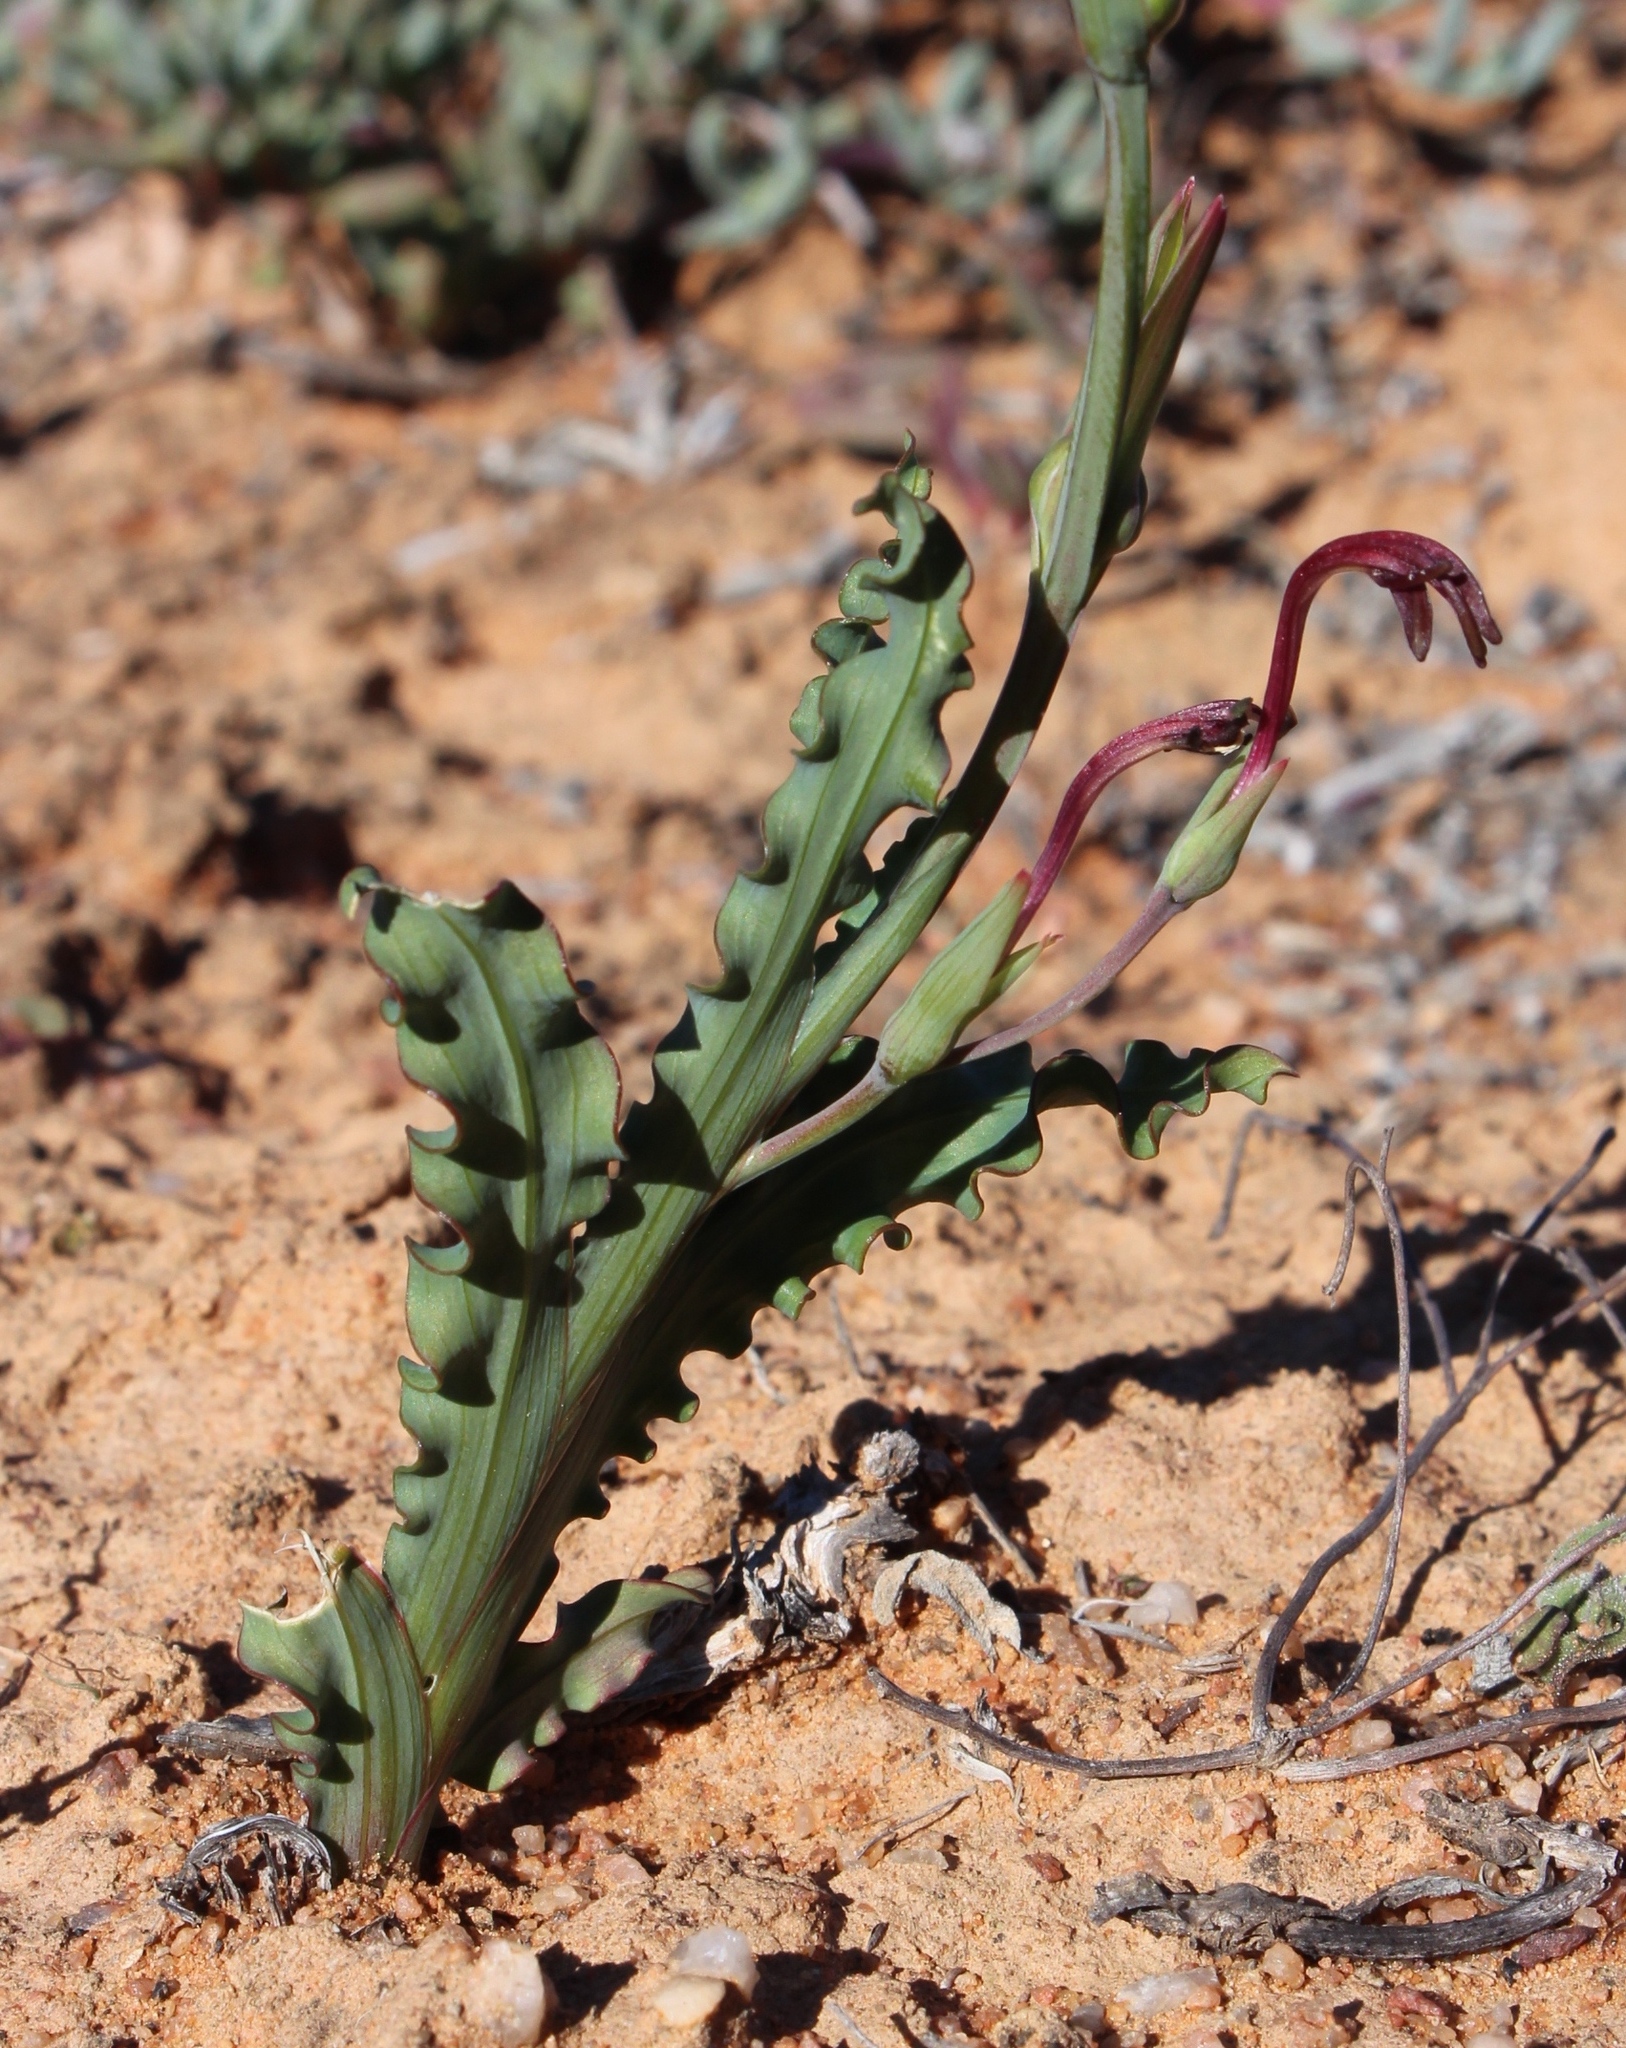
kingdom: Plantae
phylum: Tracheophyta
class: Liliopsida
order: Asparagales
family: Iridaceae
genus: Freesia
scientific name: Freesia viridis
